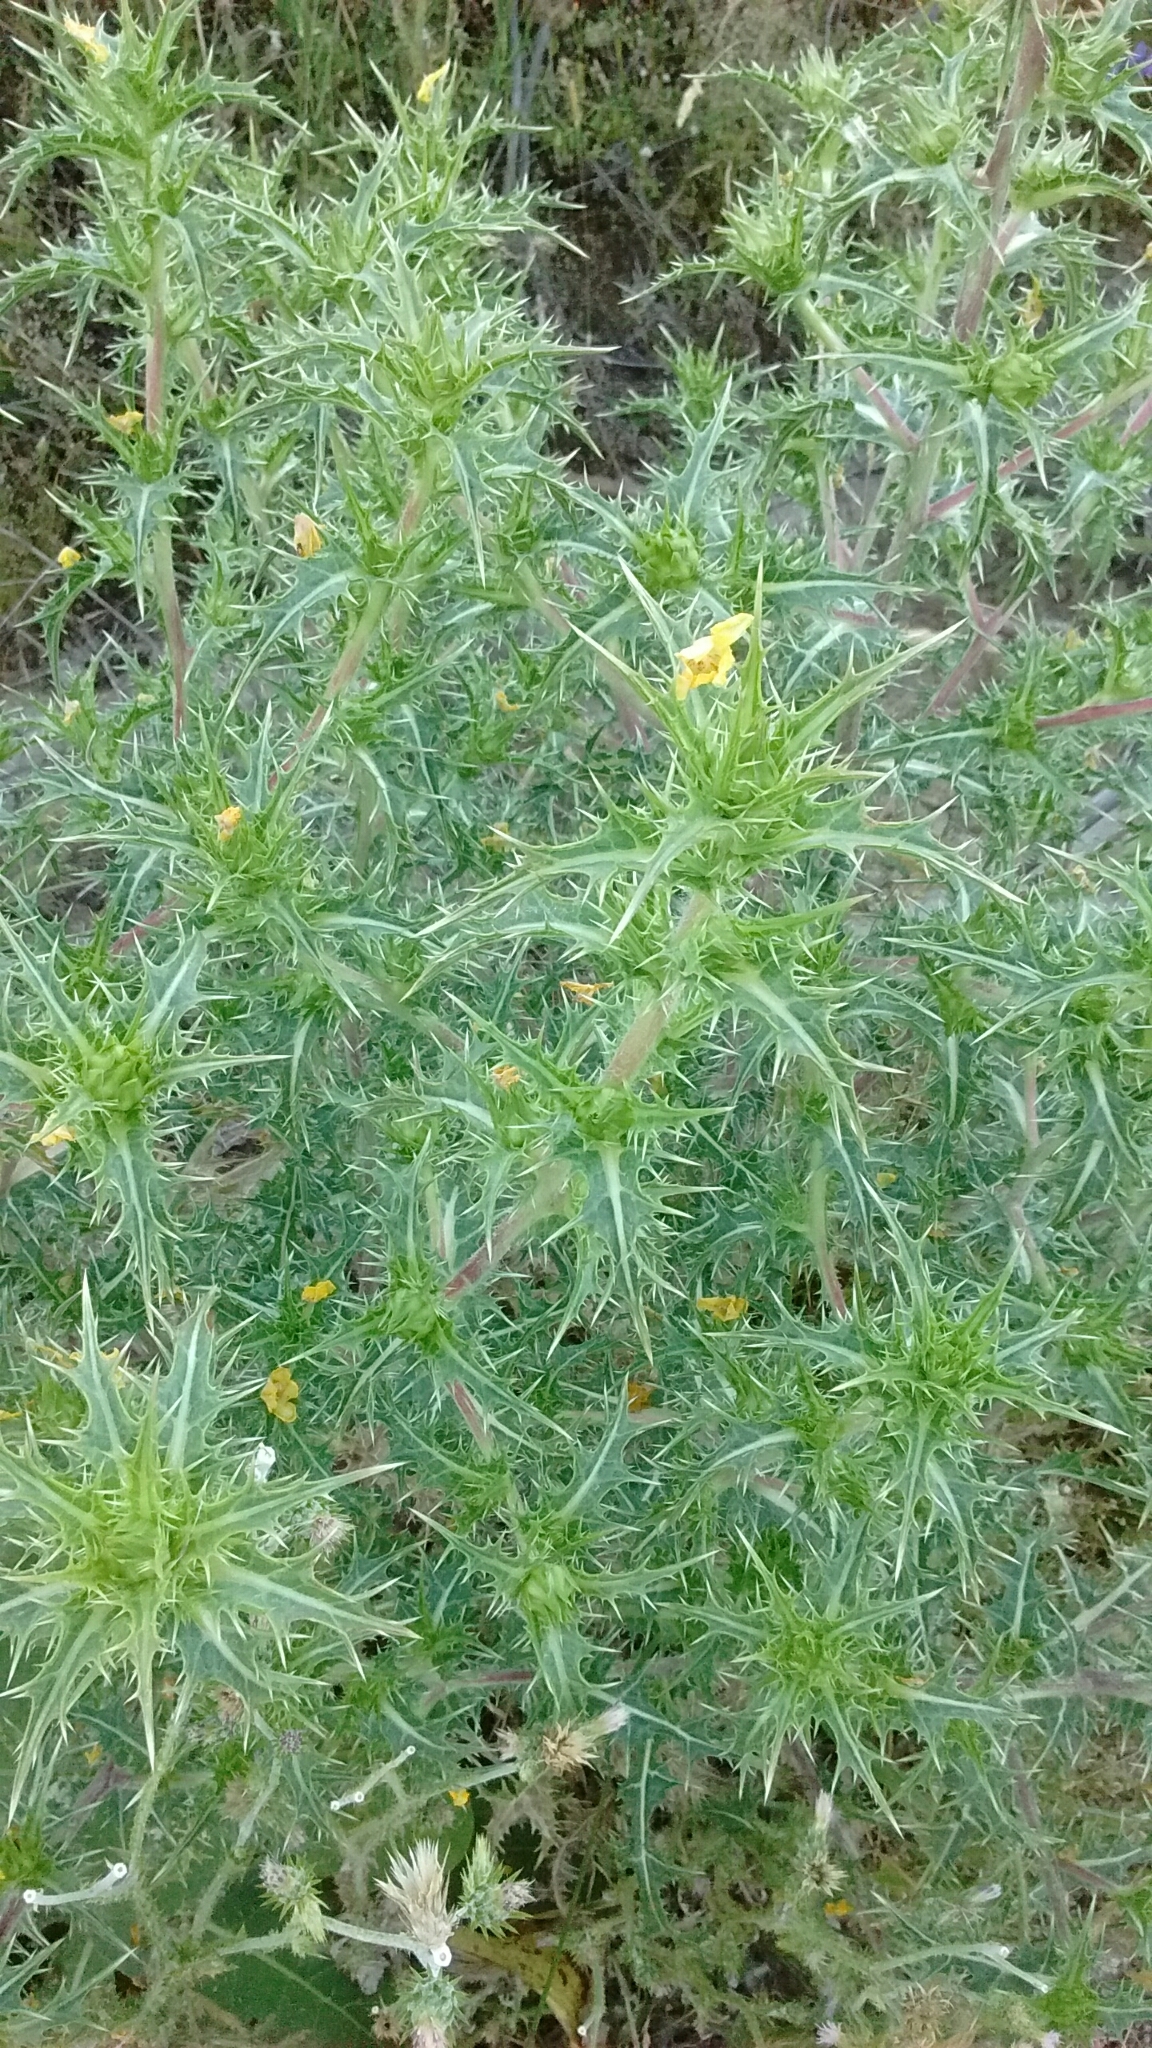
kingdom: Plantae
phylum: Tracheophyta
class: Magnoliopsida
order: Asterales
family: Asteraceae
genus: Scolymus
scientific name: Scolymus hispanicus
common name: Golden thistle
